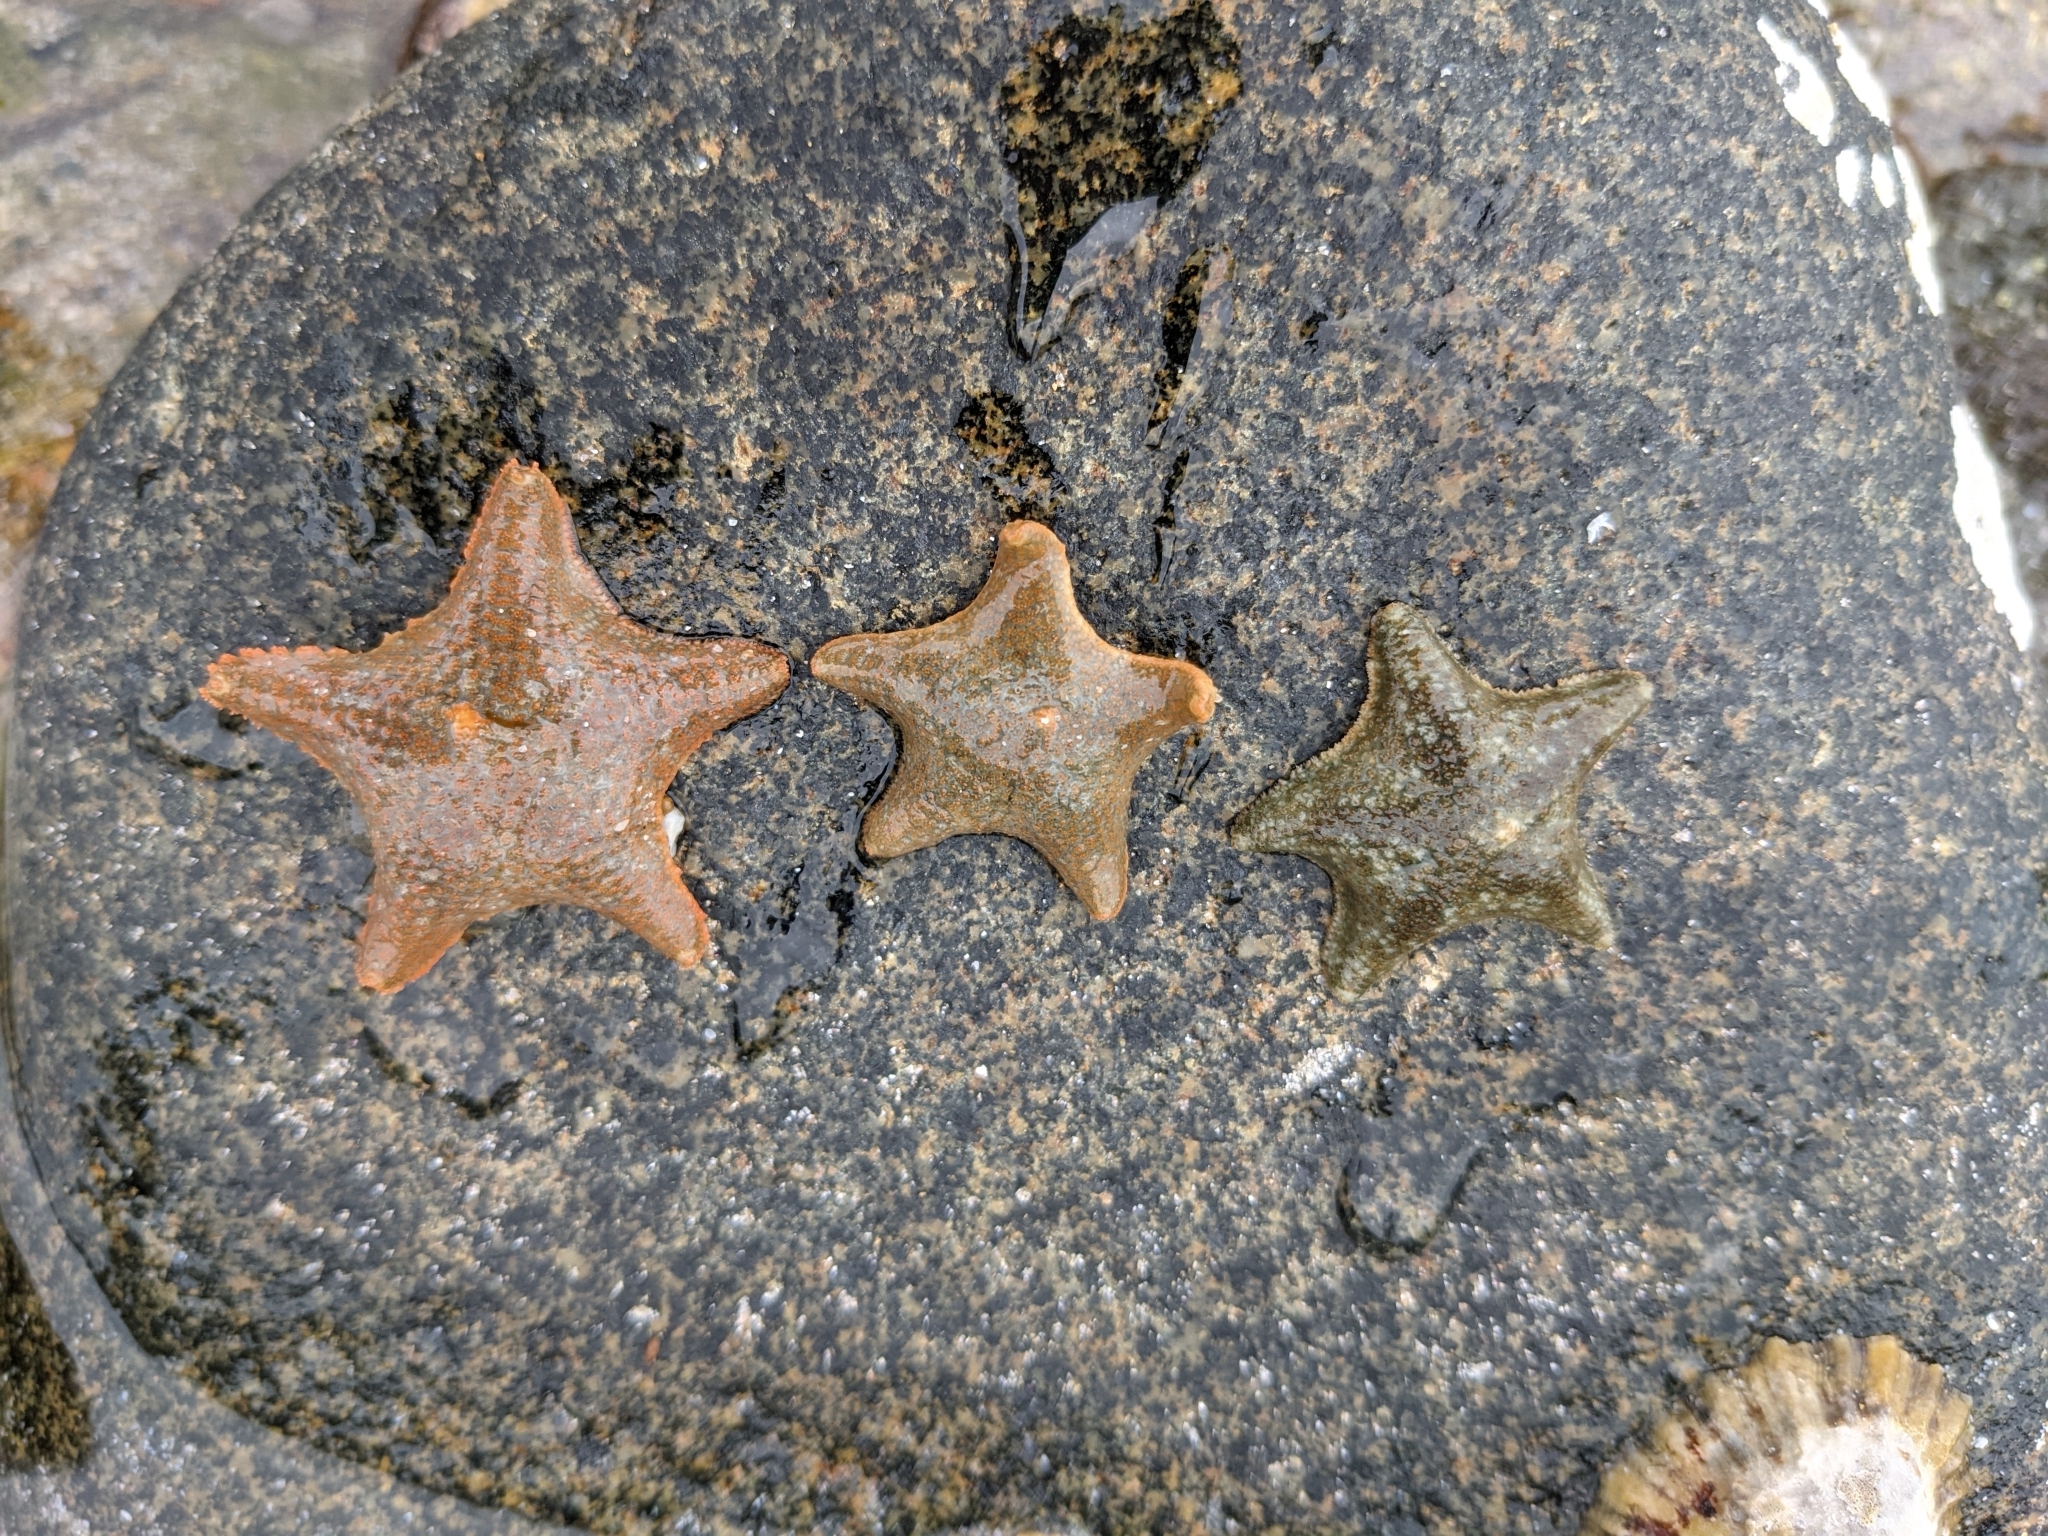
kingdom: Animalia
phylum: Echinodermata
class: Asteroidea
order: Valvatida
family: Asterinidae
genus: Asterina
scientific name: Asterina gibbosa
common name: Cushion star
